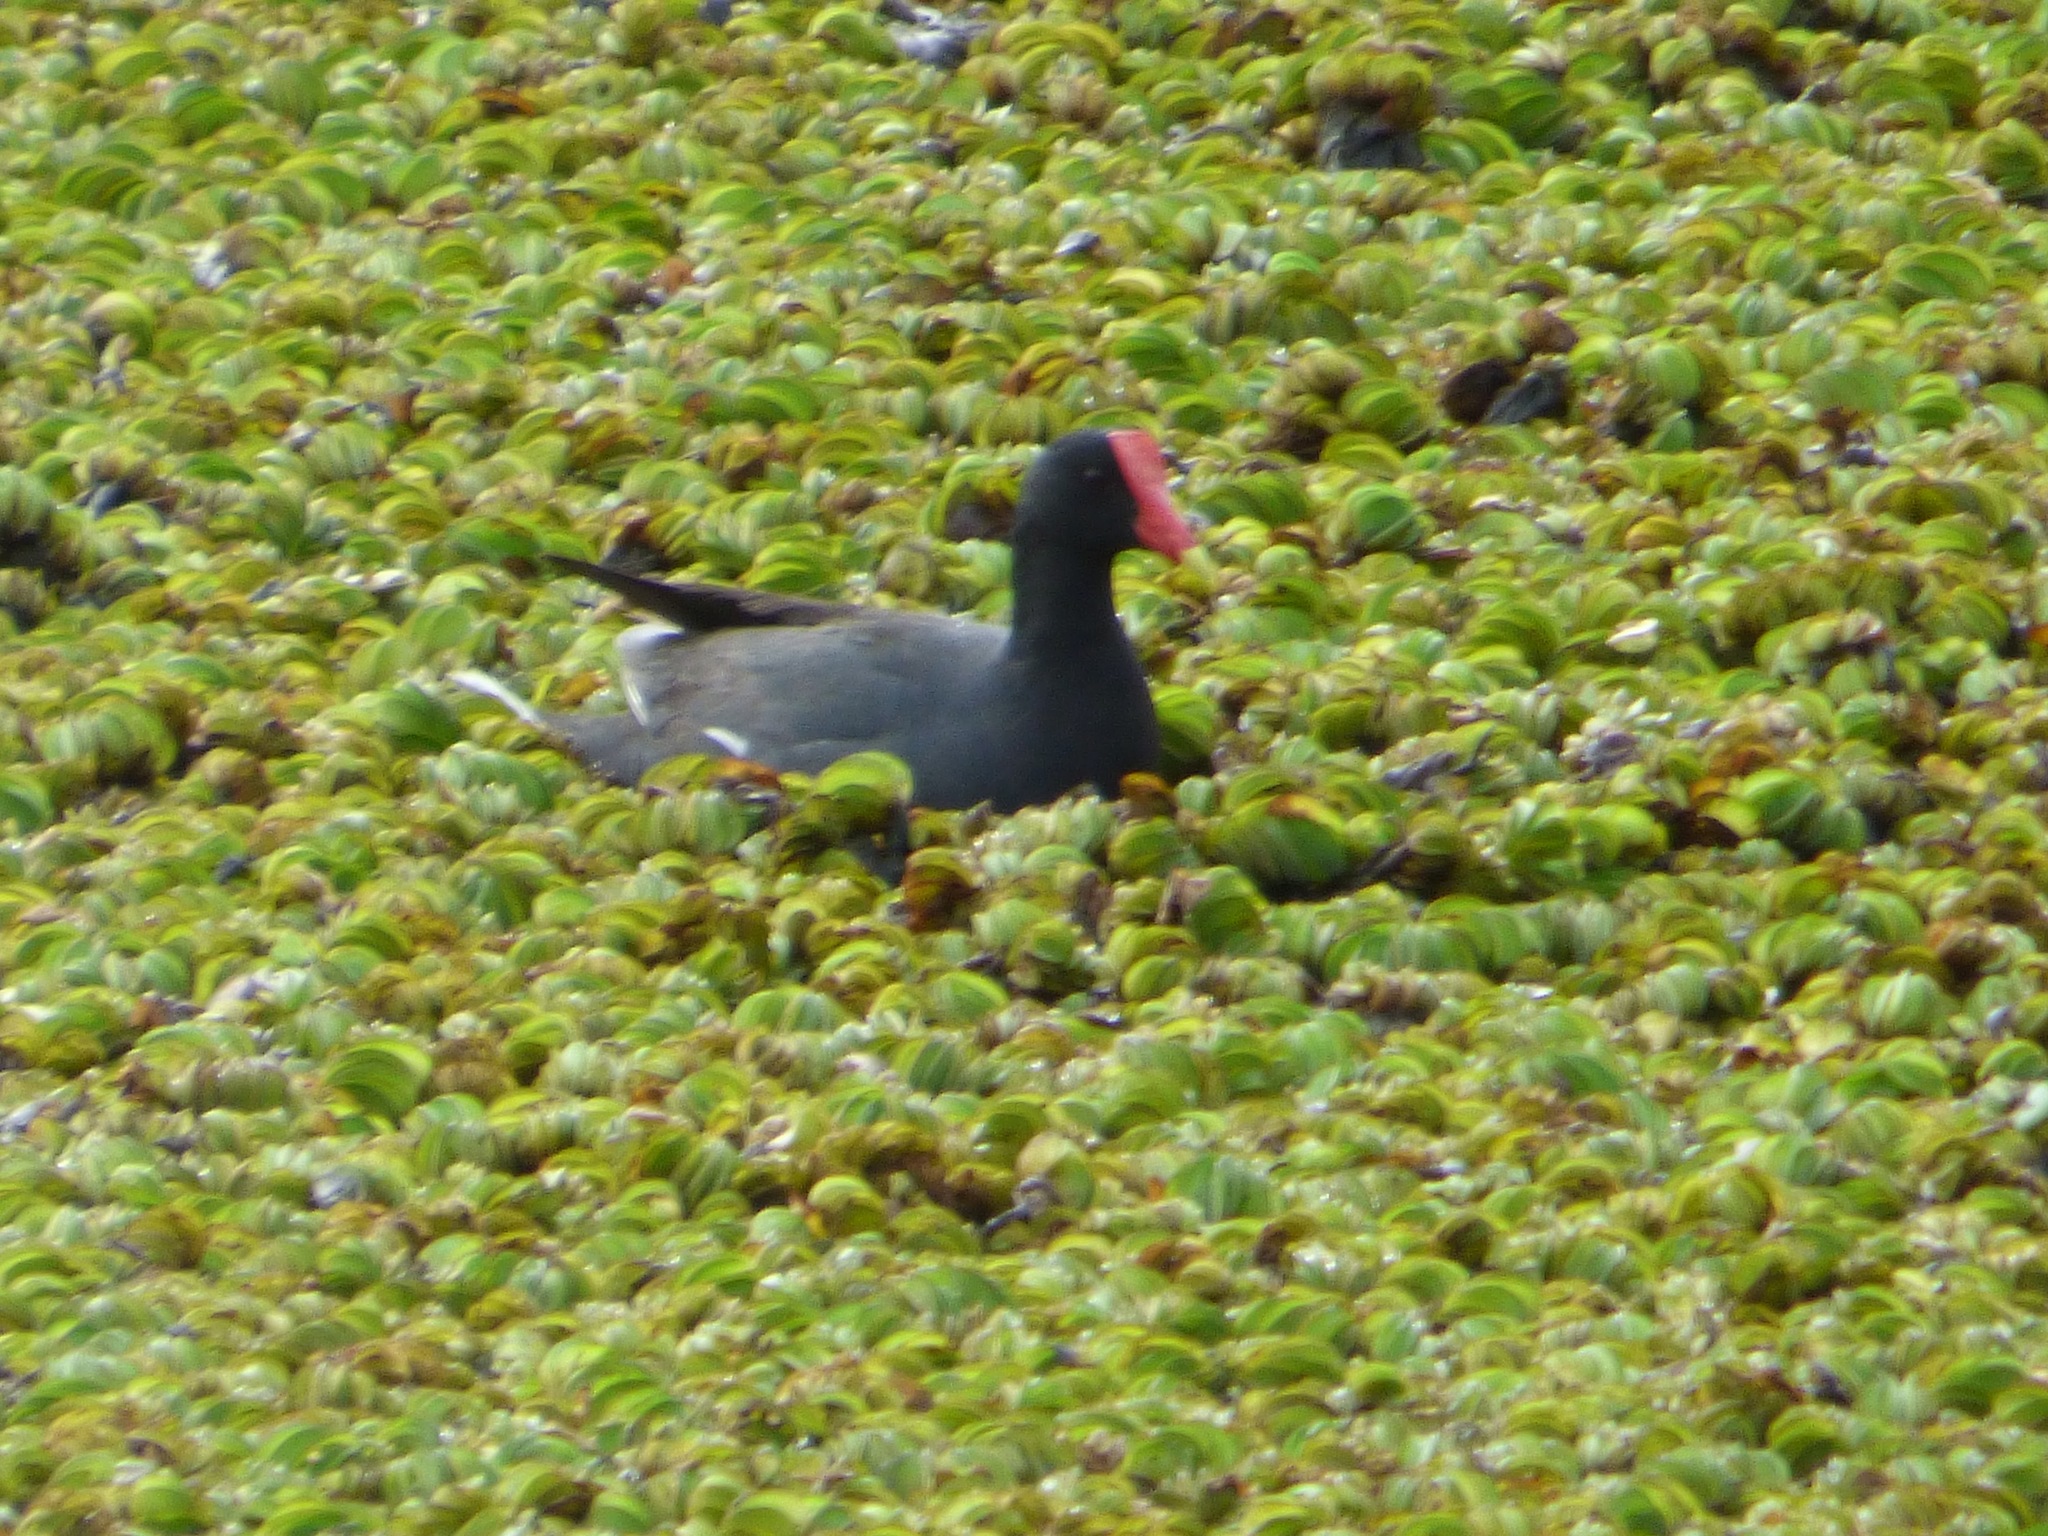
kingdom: Animalia
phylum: Chordata
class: Aves
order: Gruiformes
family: Rallidae
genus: Gallinula
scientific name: Gallinula chloropus
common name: Common moorhen
